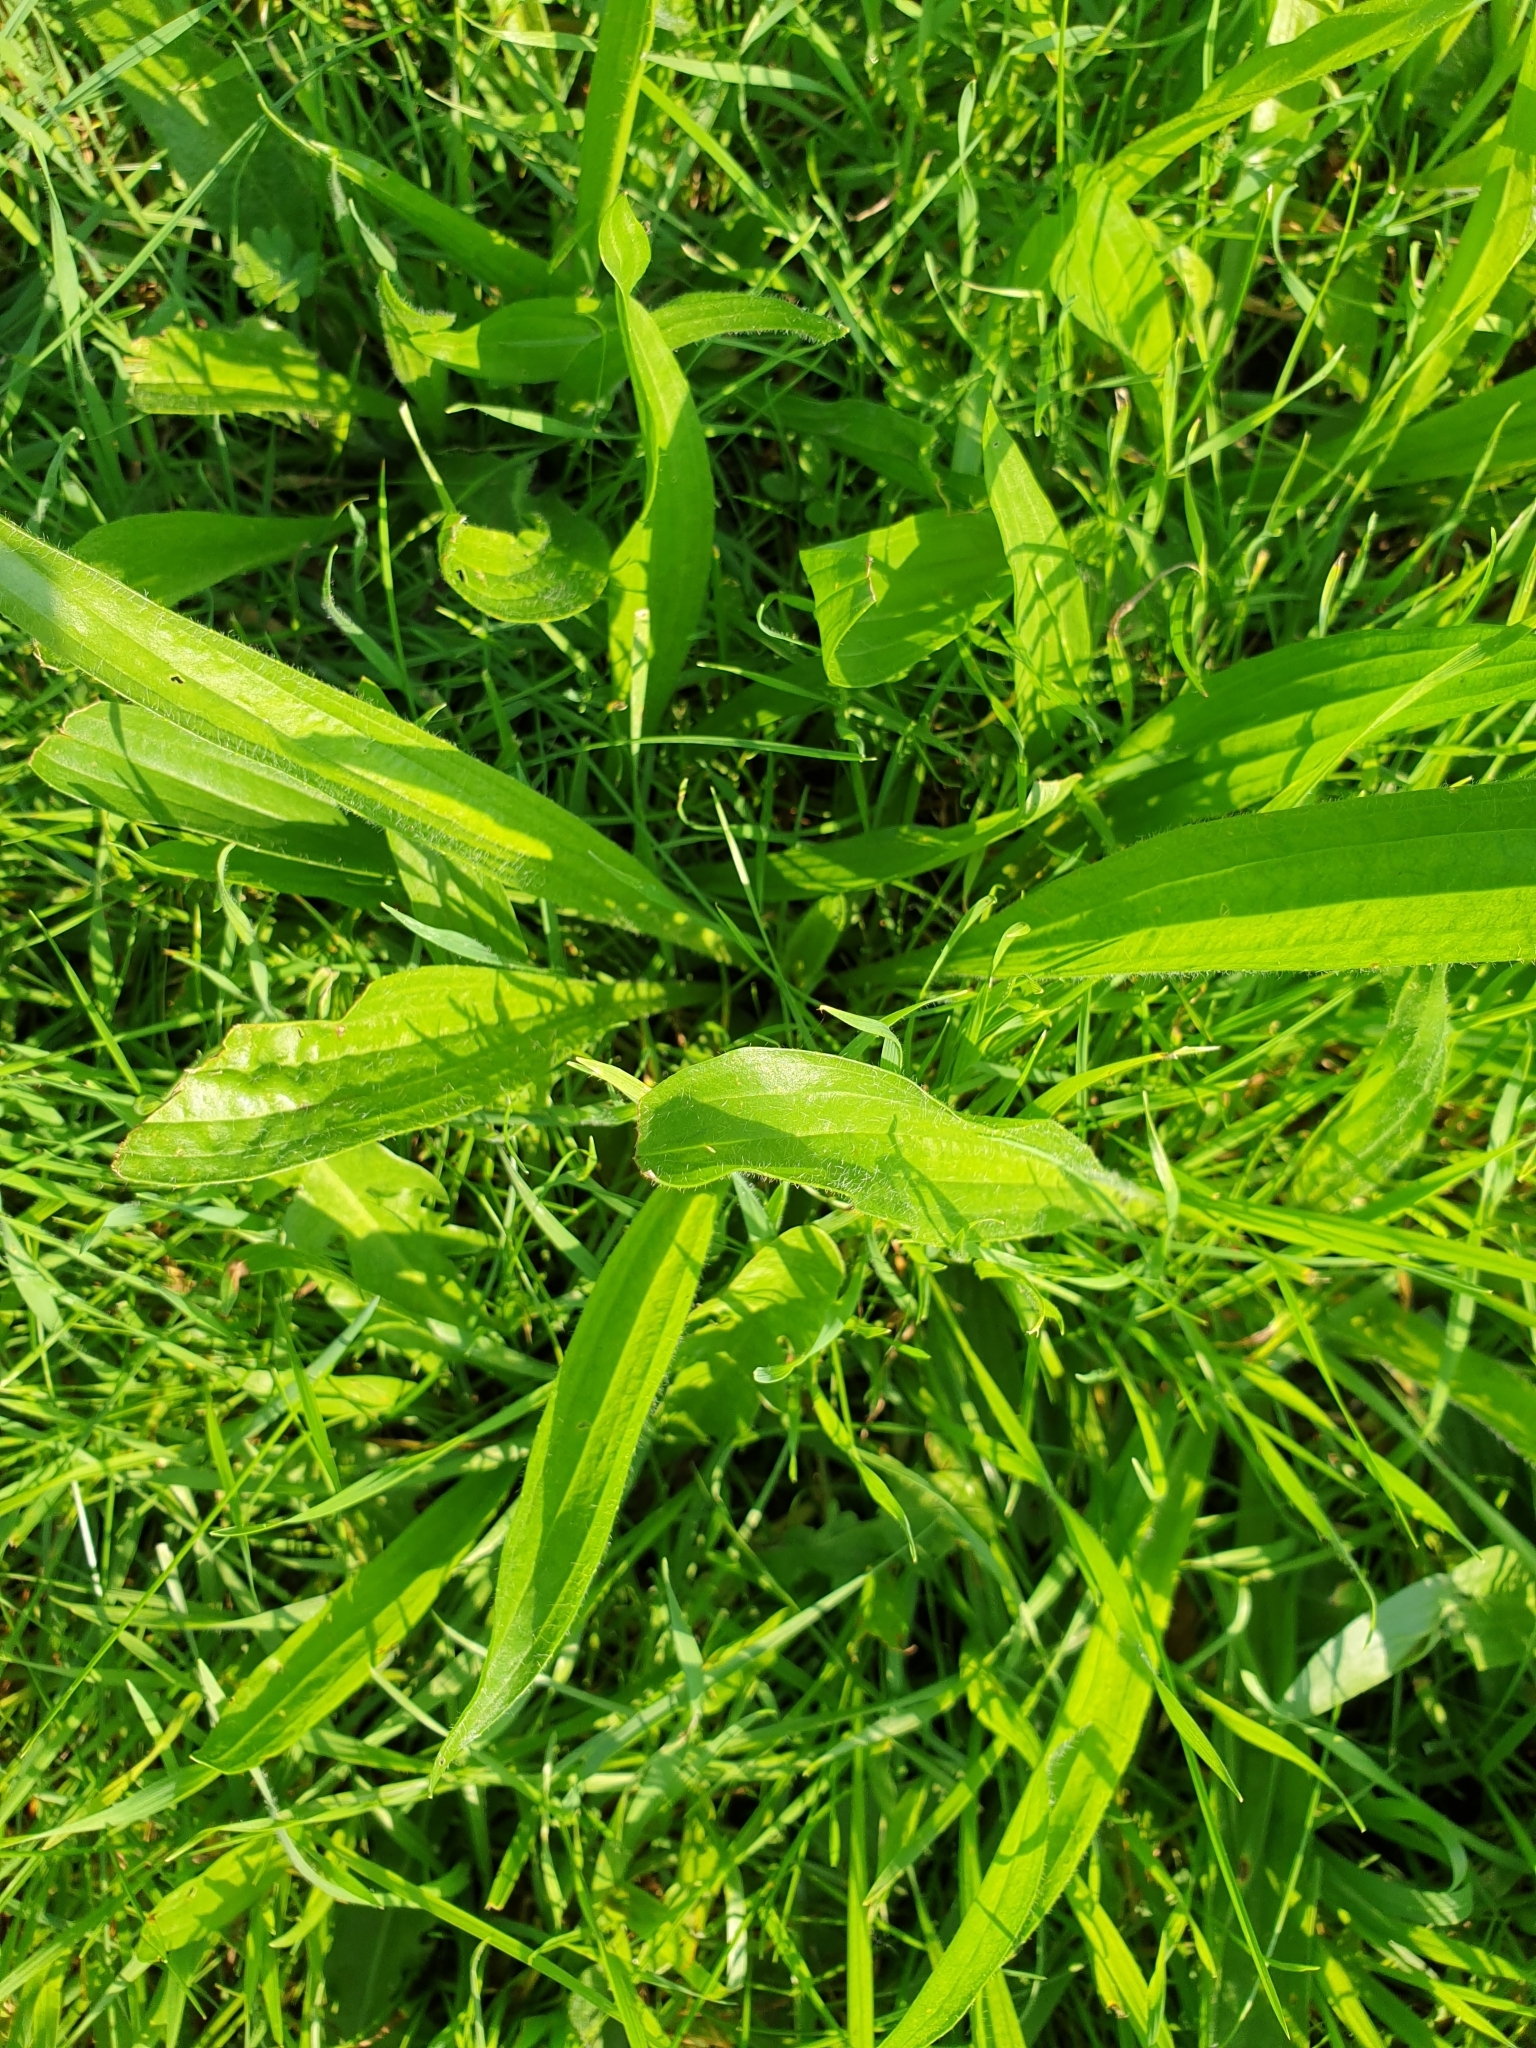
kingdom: Plantae
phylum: Tracheophyta
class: Magnoliopsida
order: Lamiales
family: Plantaginaceae
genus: Plantago
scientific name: Plantago lanceolata
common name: Ribwort plantain
